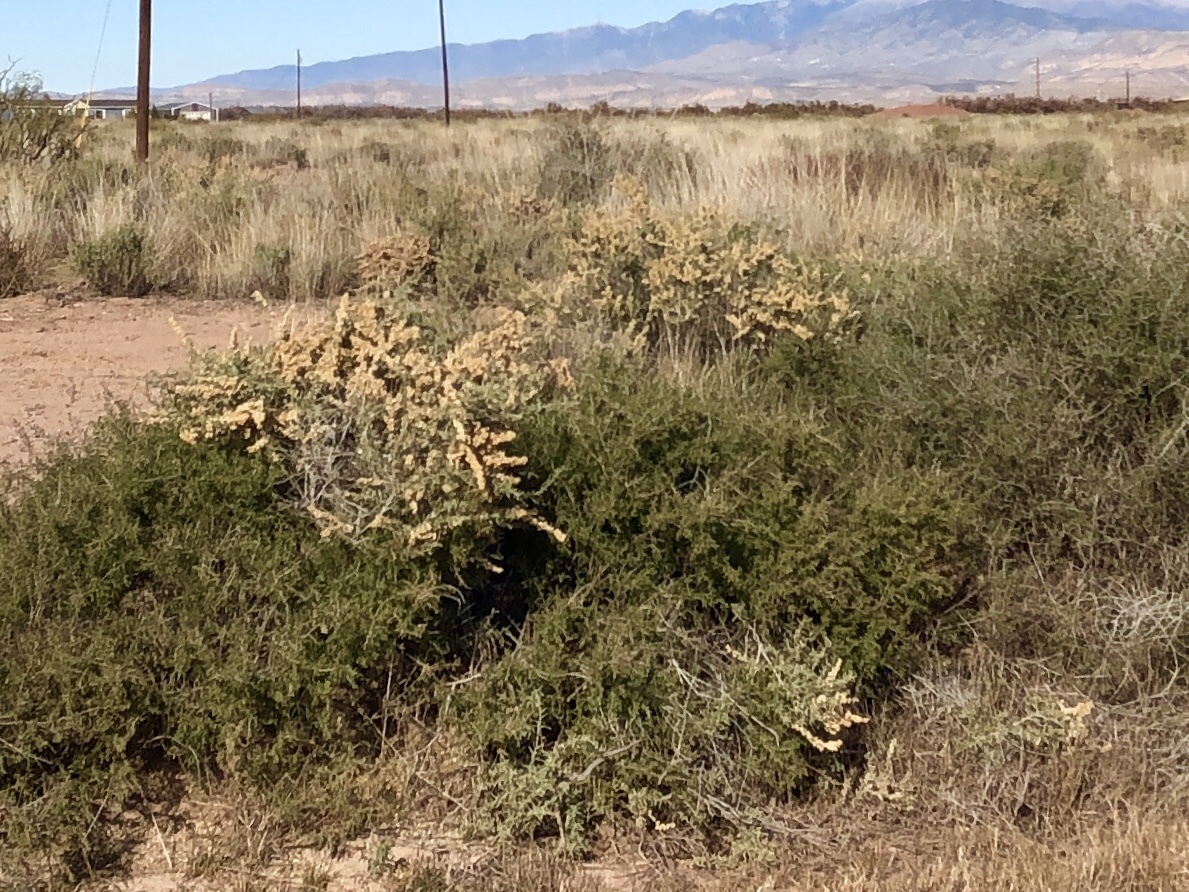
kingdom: Plantae
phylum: Tracheophyta
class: Magnoliopsida
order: Caryophyllales
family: Amaranthaceae
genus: Atriplex
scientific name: Atriplex canescens
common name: Four-wing saltbush
